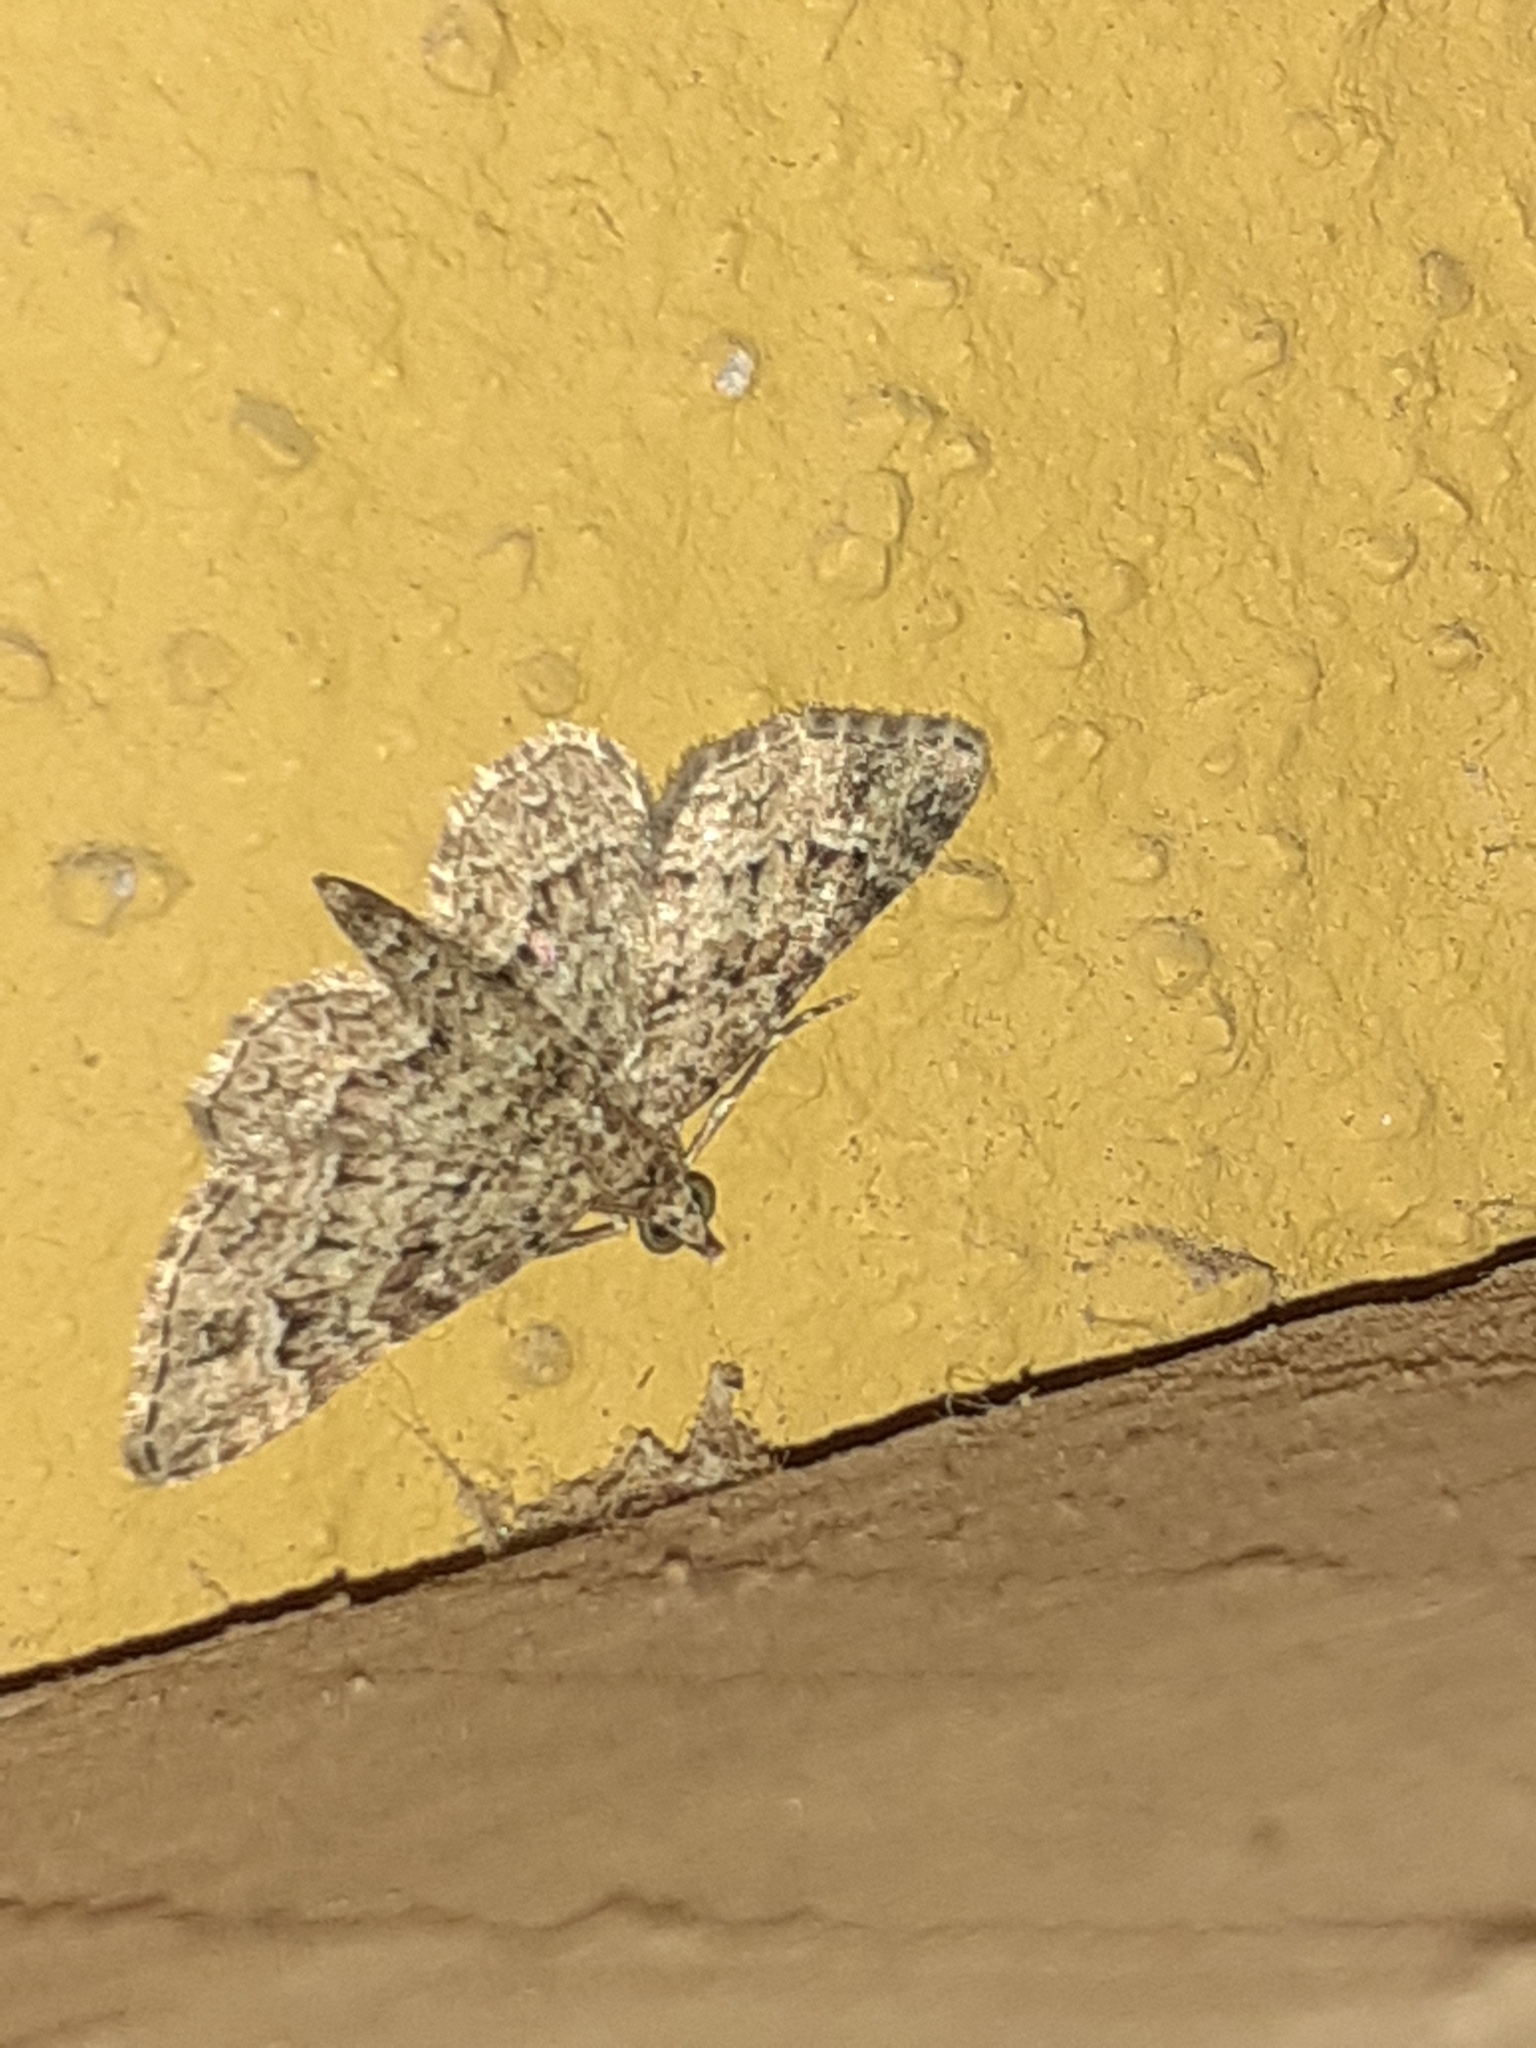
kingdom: Animalia
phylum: Arthropoda
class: Insecta
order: Lepidoptera
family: Geometridae
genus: Gymnoscelis
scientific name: Gymnoscelis rufifasciata
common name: Double-striped pug
